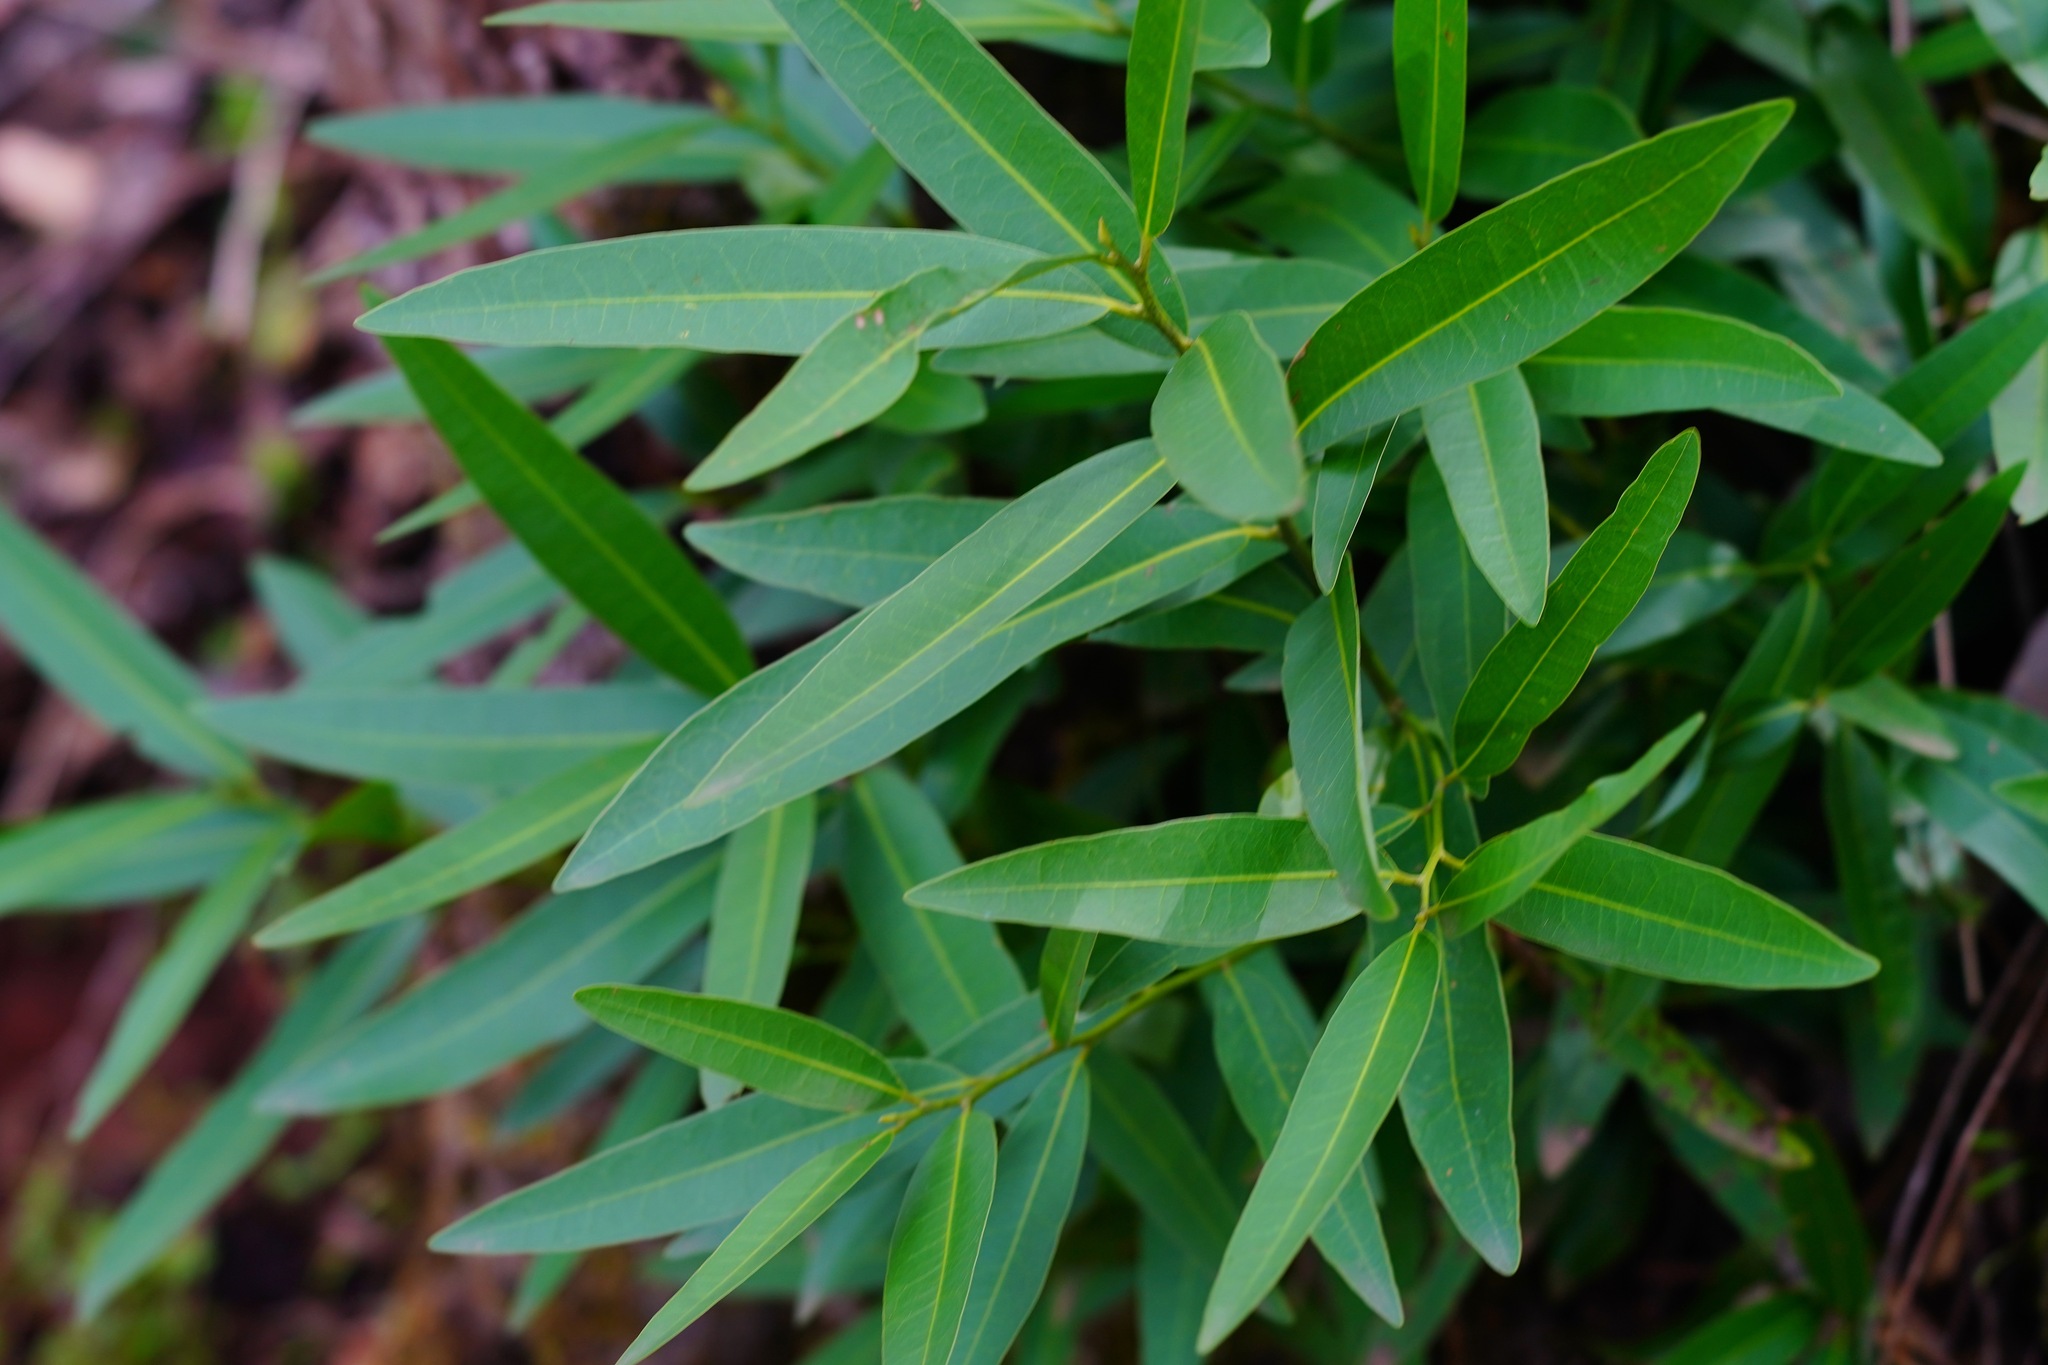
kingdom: Plantae
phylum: Tracheophyta
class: Magnoliopsida
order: Laurales
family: Lauraceae
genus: Umbellularia
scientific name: Umbellularia californica
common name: California bay
